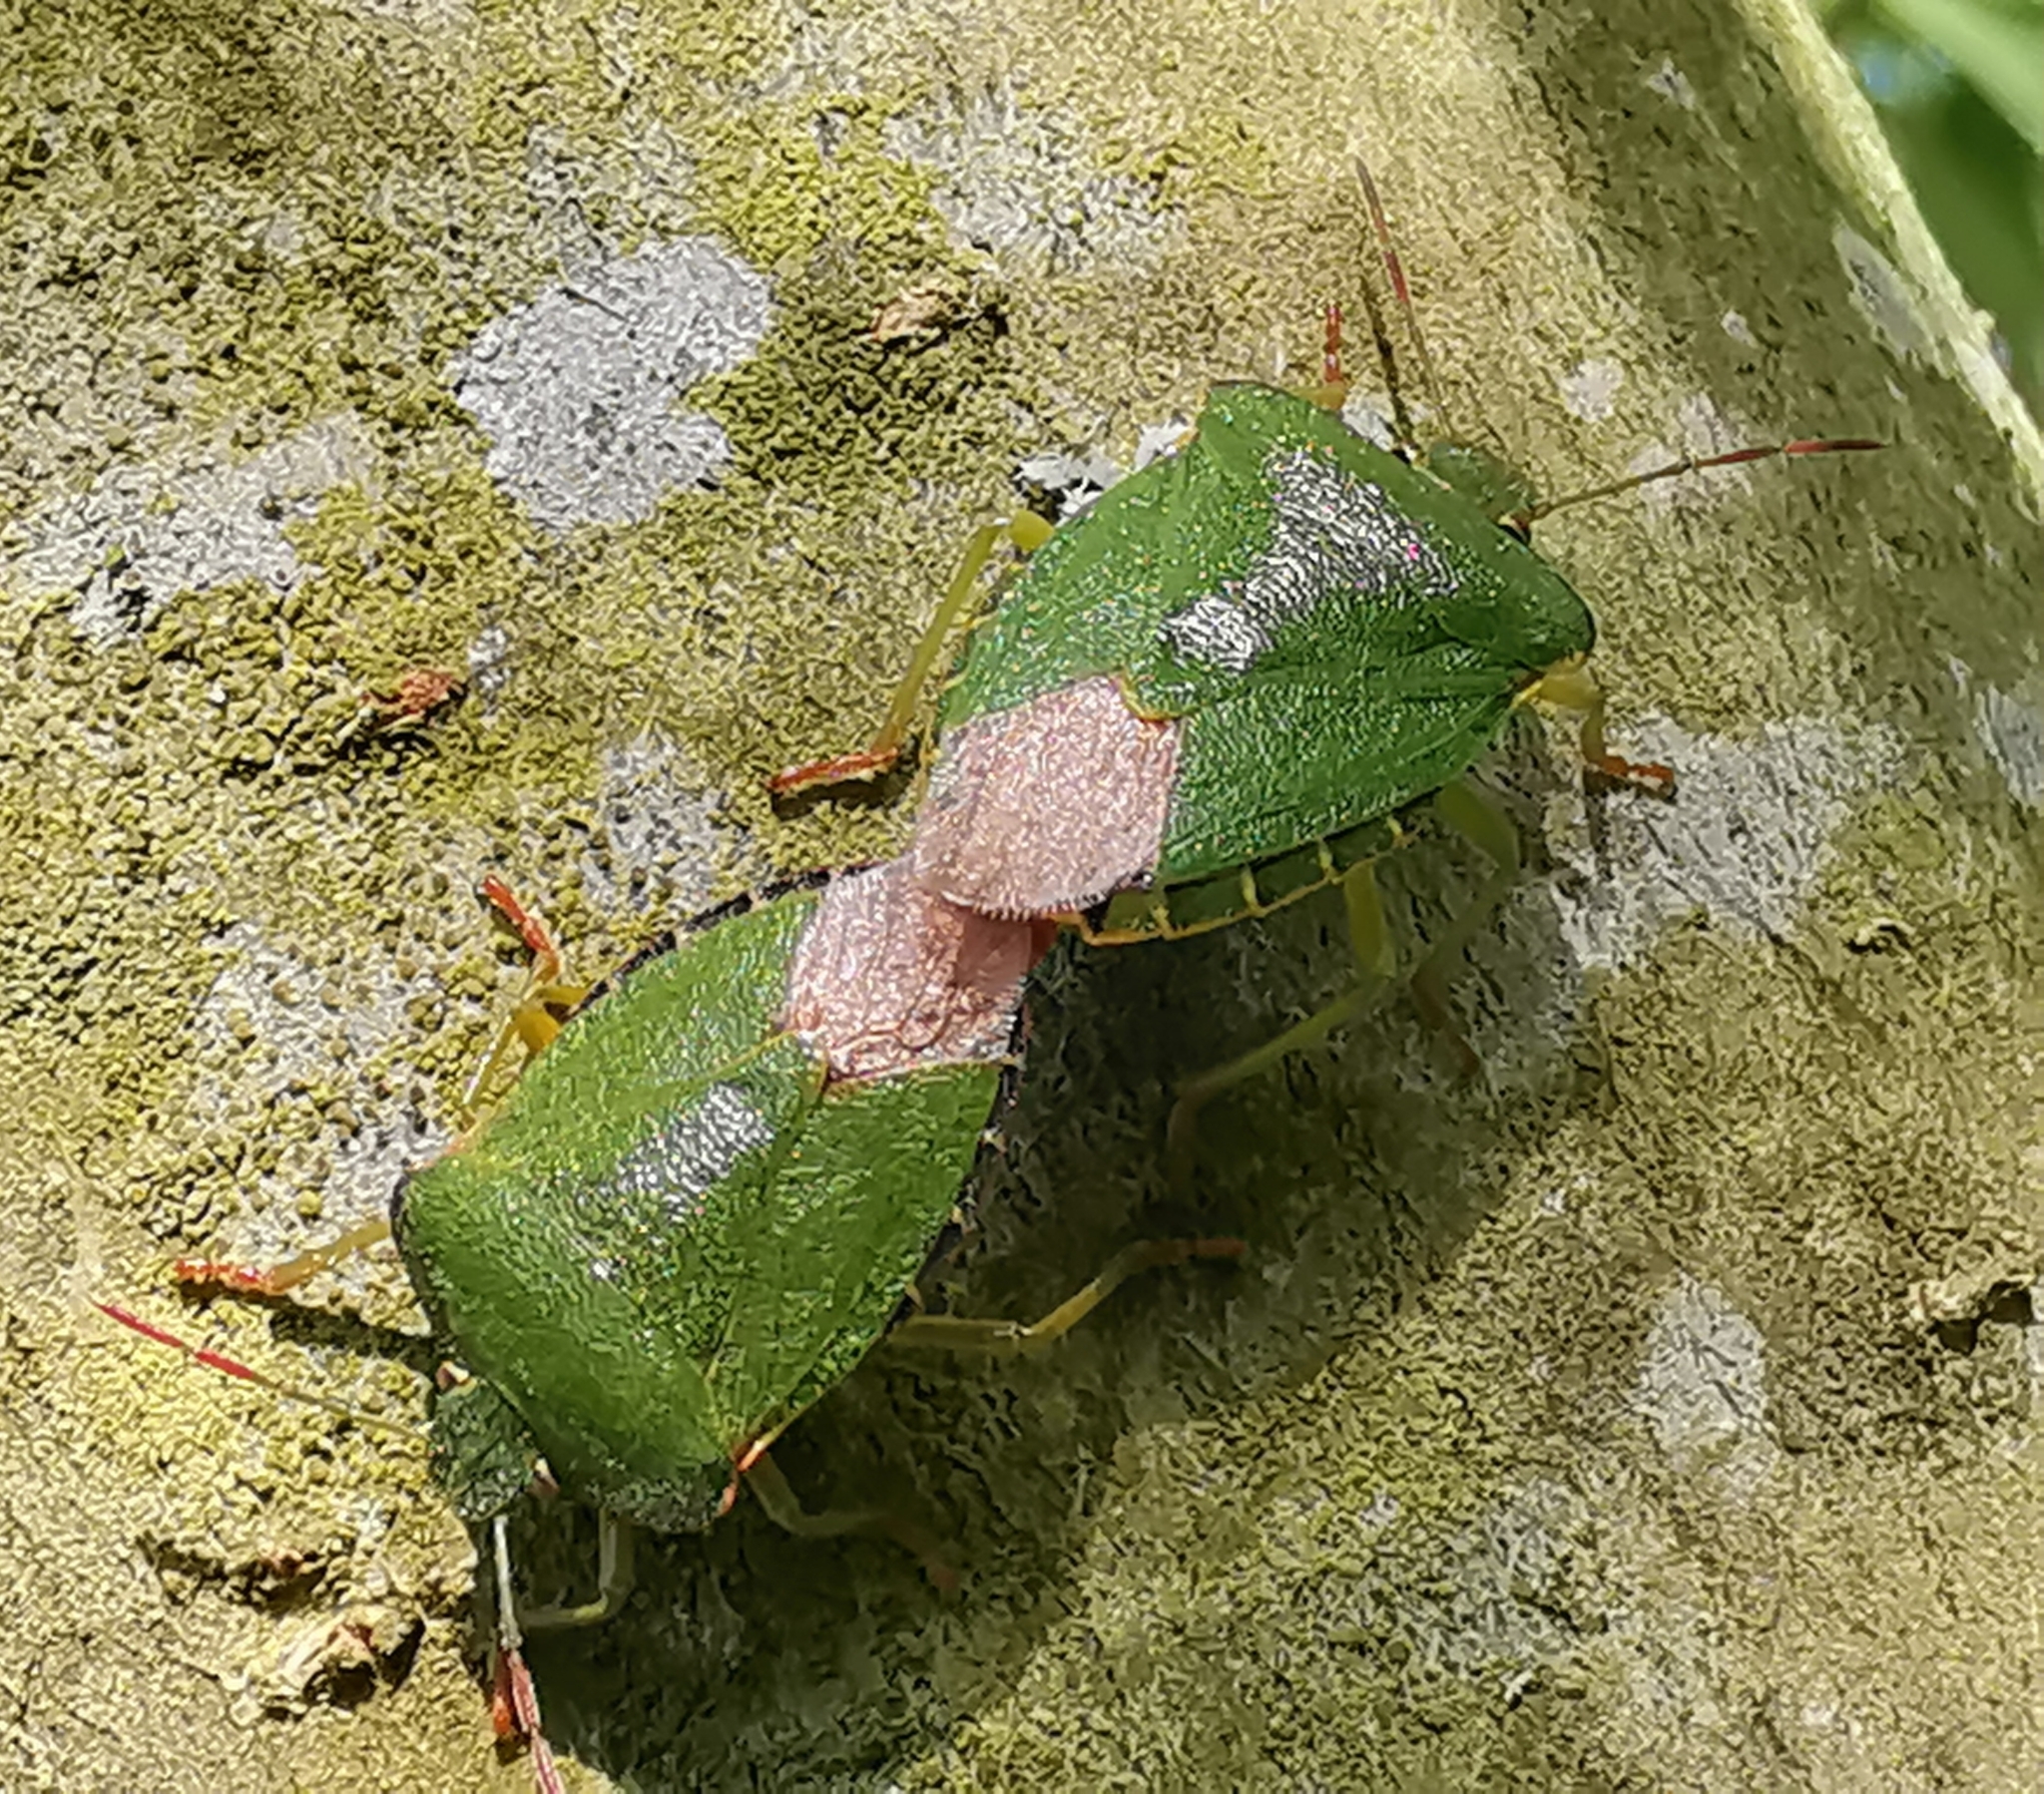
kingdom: Animalia
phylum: Arthropoda
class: Insecta
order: Hemiptera
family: Pentatomidae
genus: Palomena
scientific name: Palomena prasina
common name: Green shieldbug
